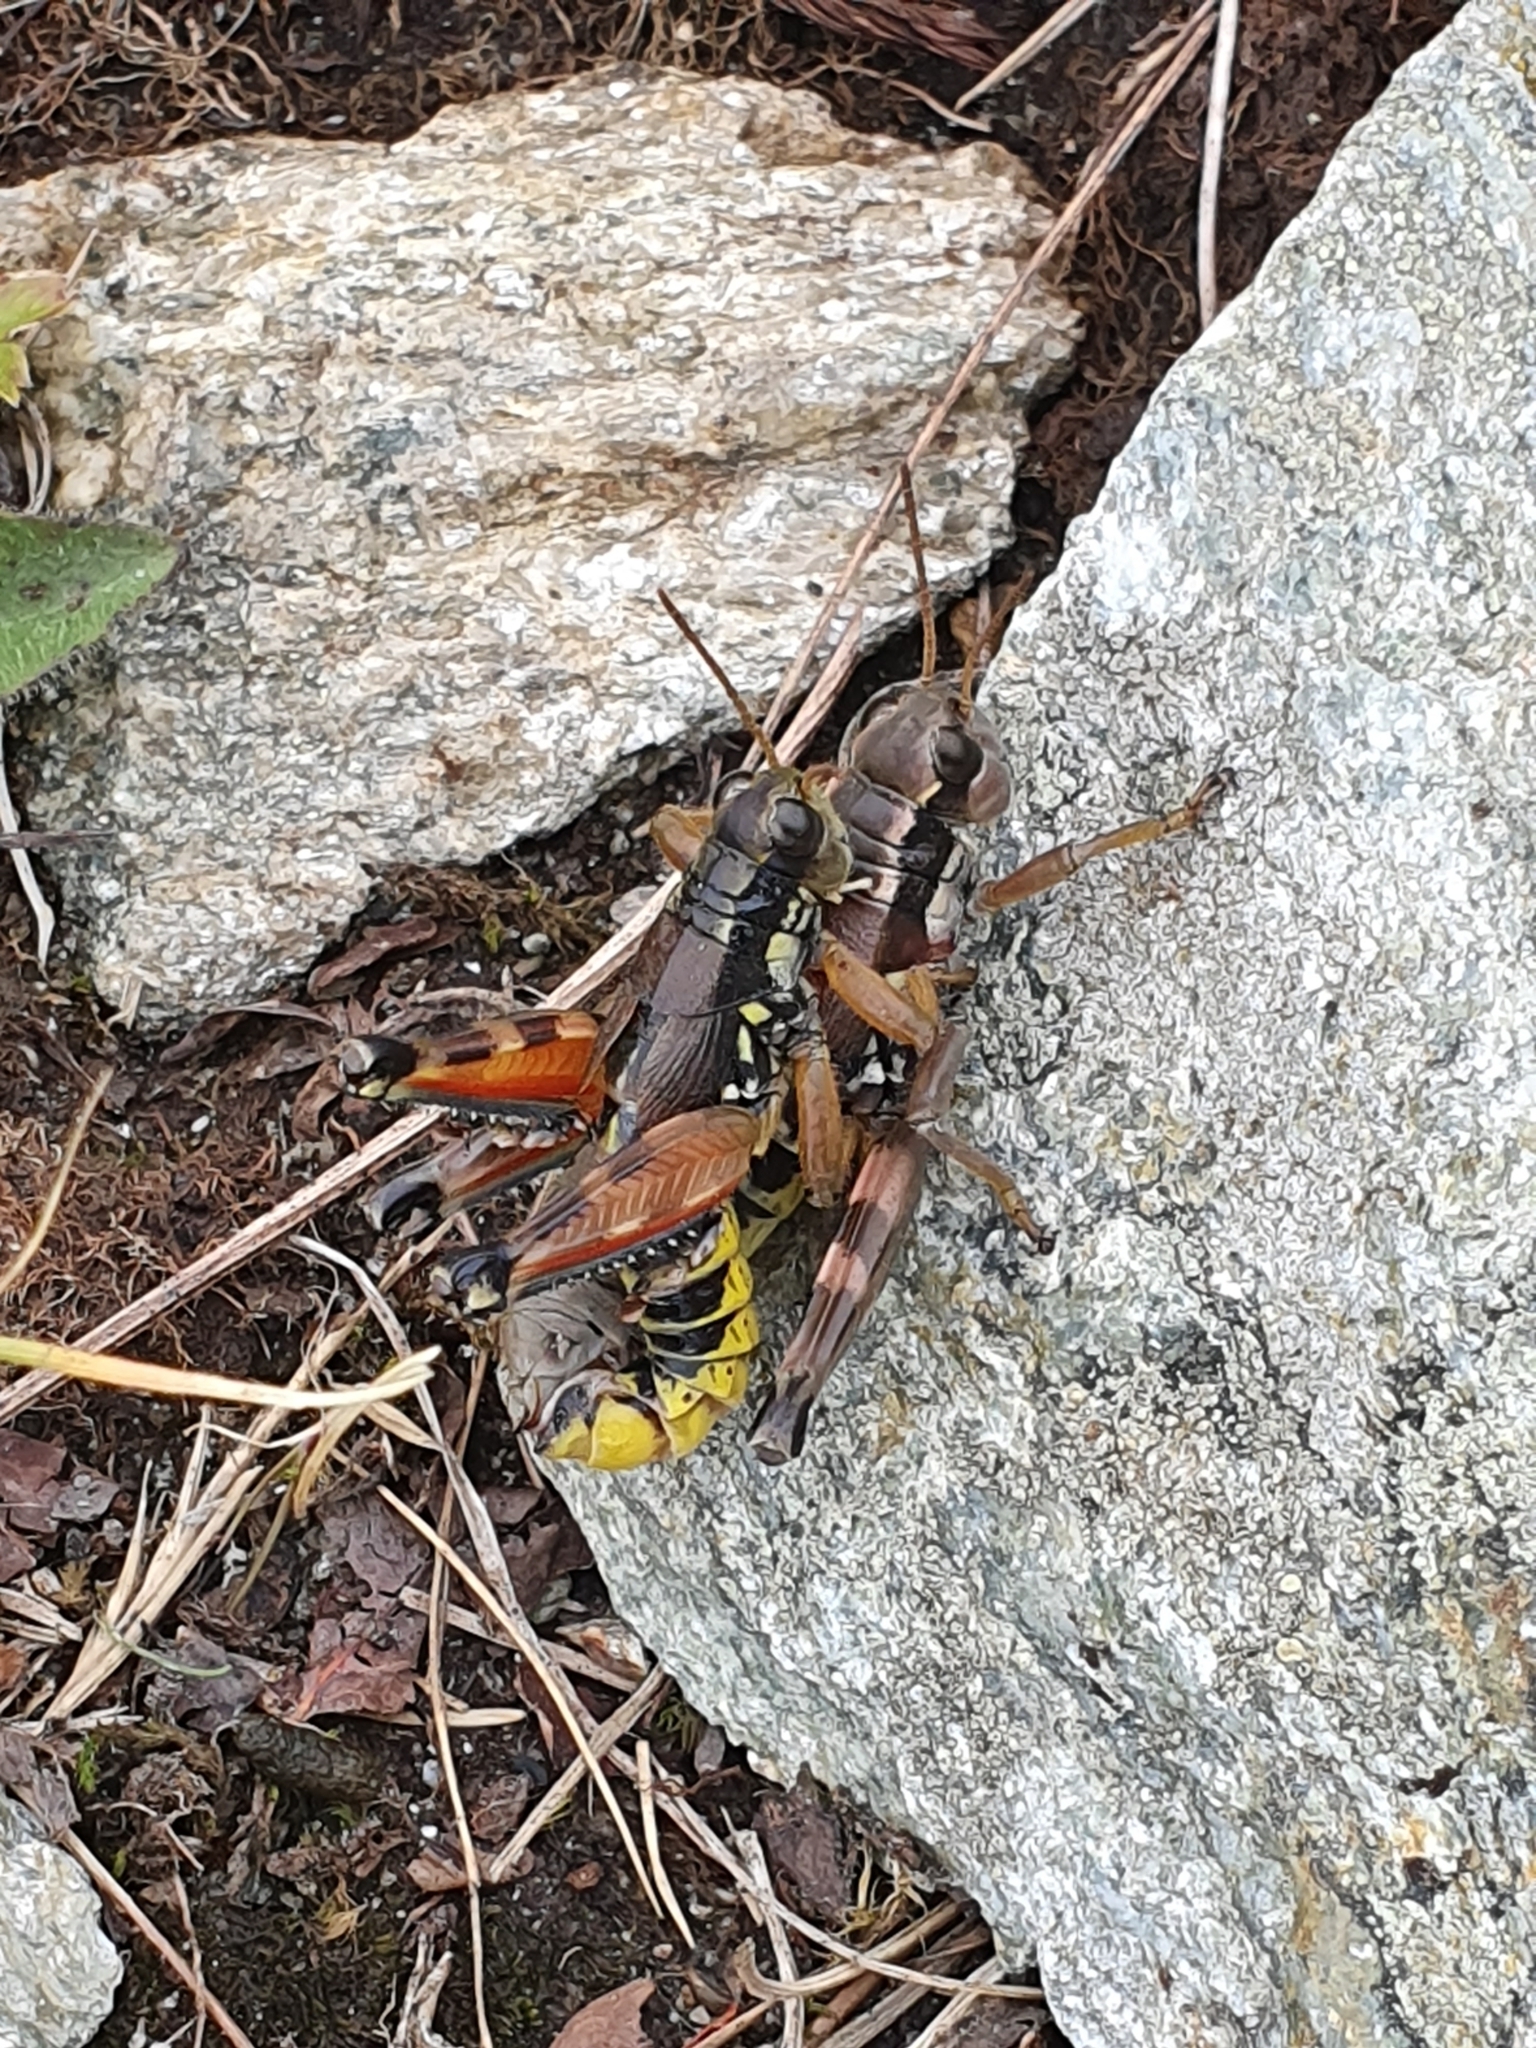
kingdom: Animalia
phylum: Arthropoda
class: Insecta
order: Orthoptera
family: Acrididae
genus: Podisma
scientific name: Podisma pedestris
